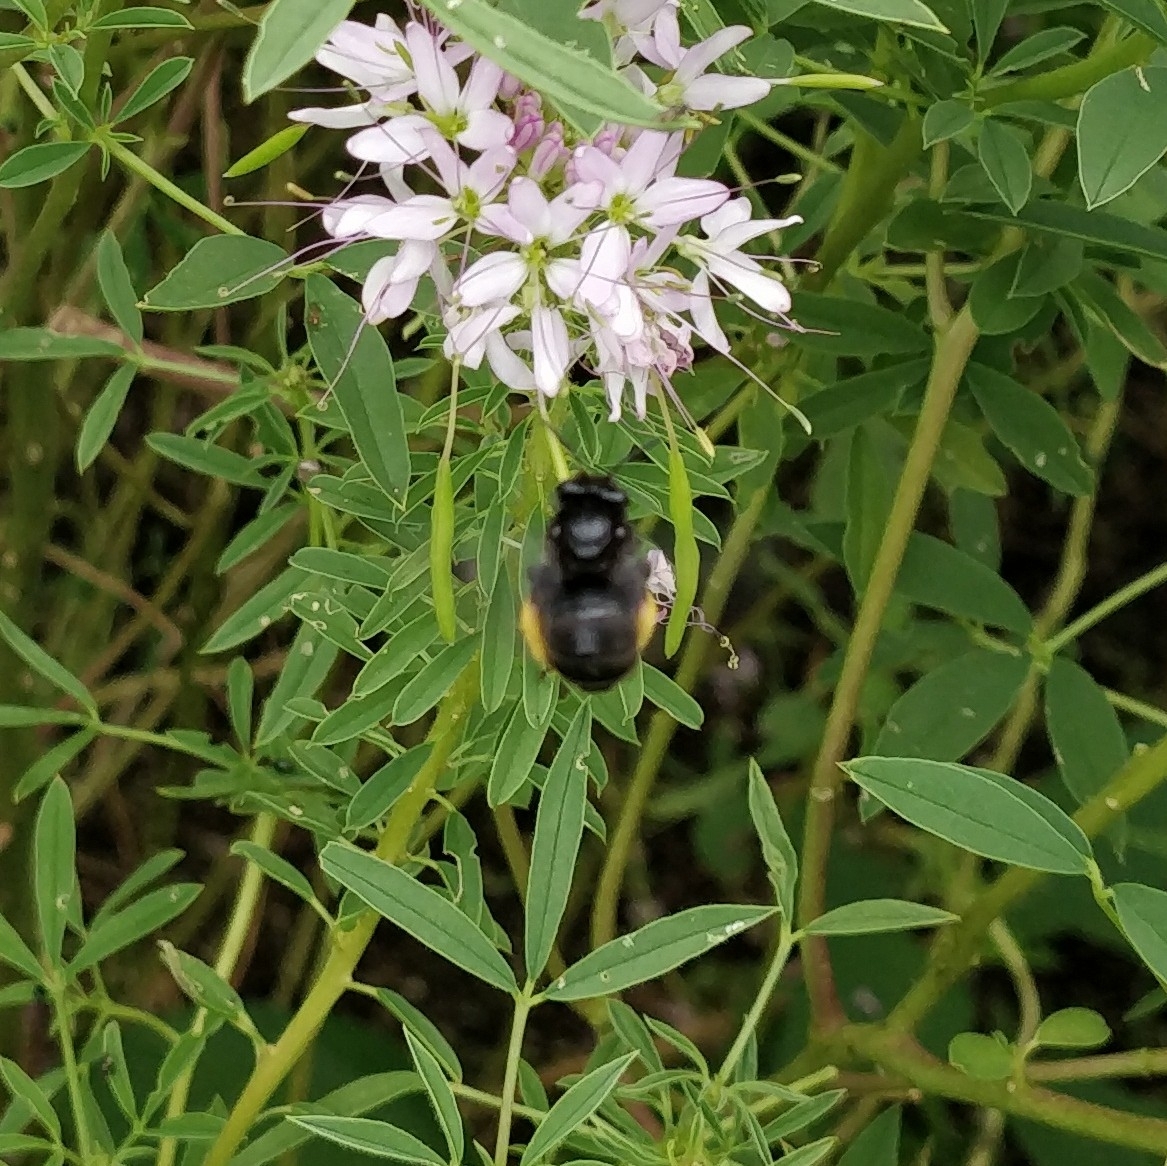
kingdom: Animalia
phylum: Arthropoda
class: Insecta
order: Hymenoptera
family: Apidae
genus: Melissodes
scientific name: Melissodes bimaculatus
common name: Two-spotted long-horned bee
